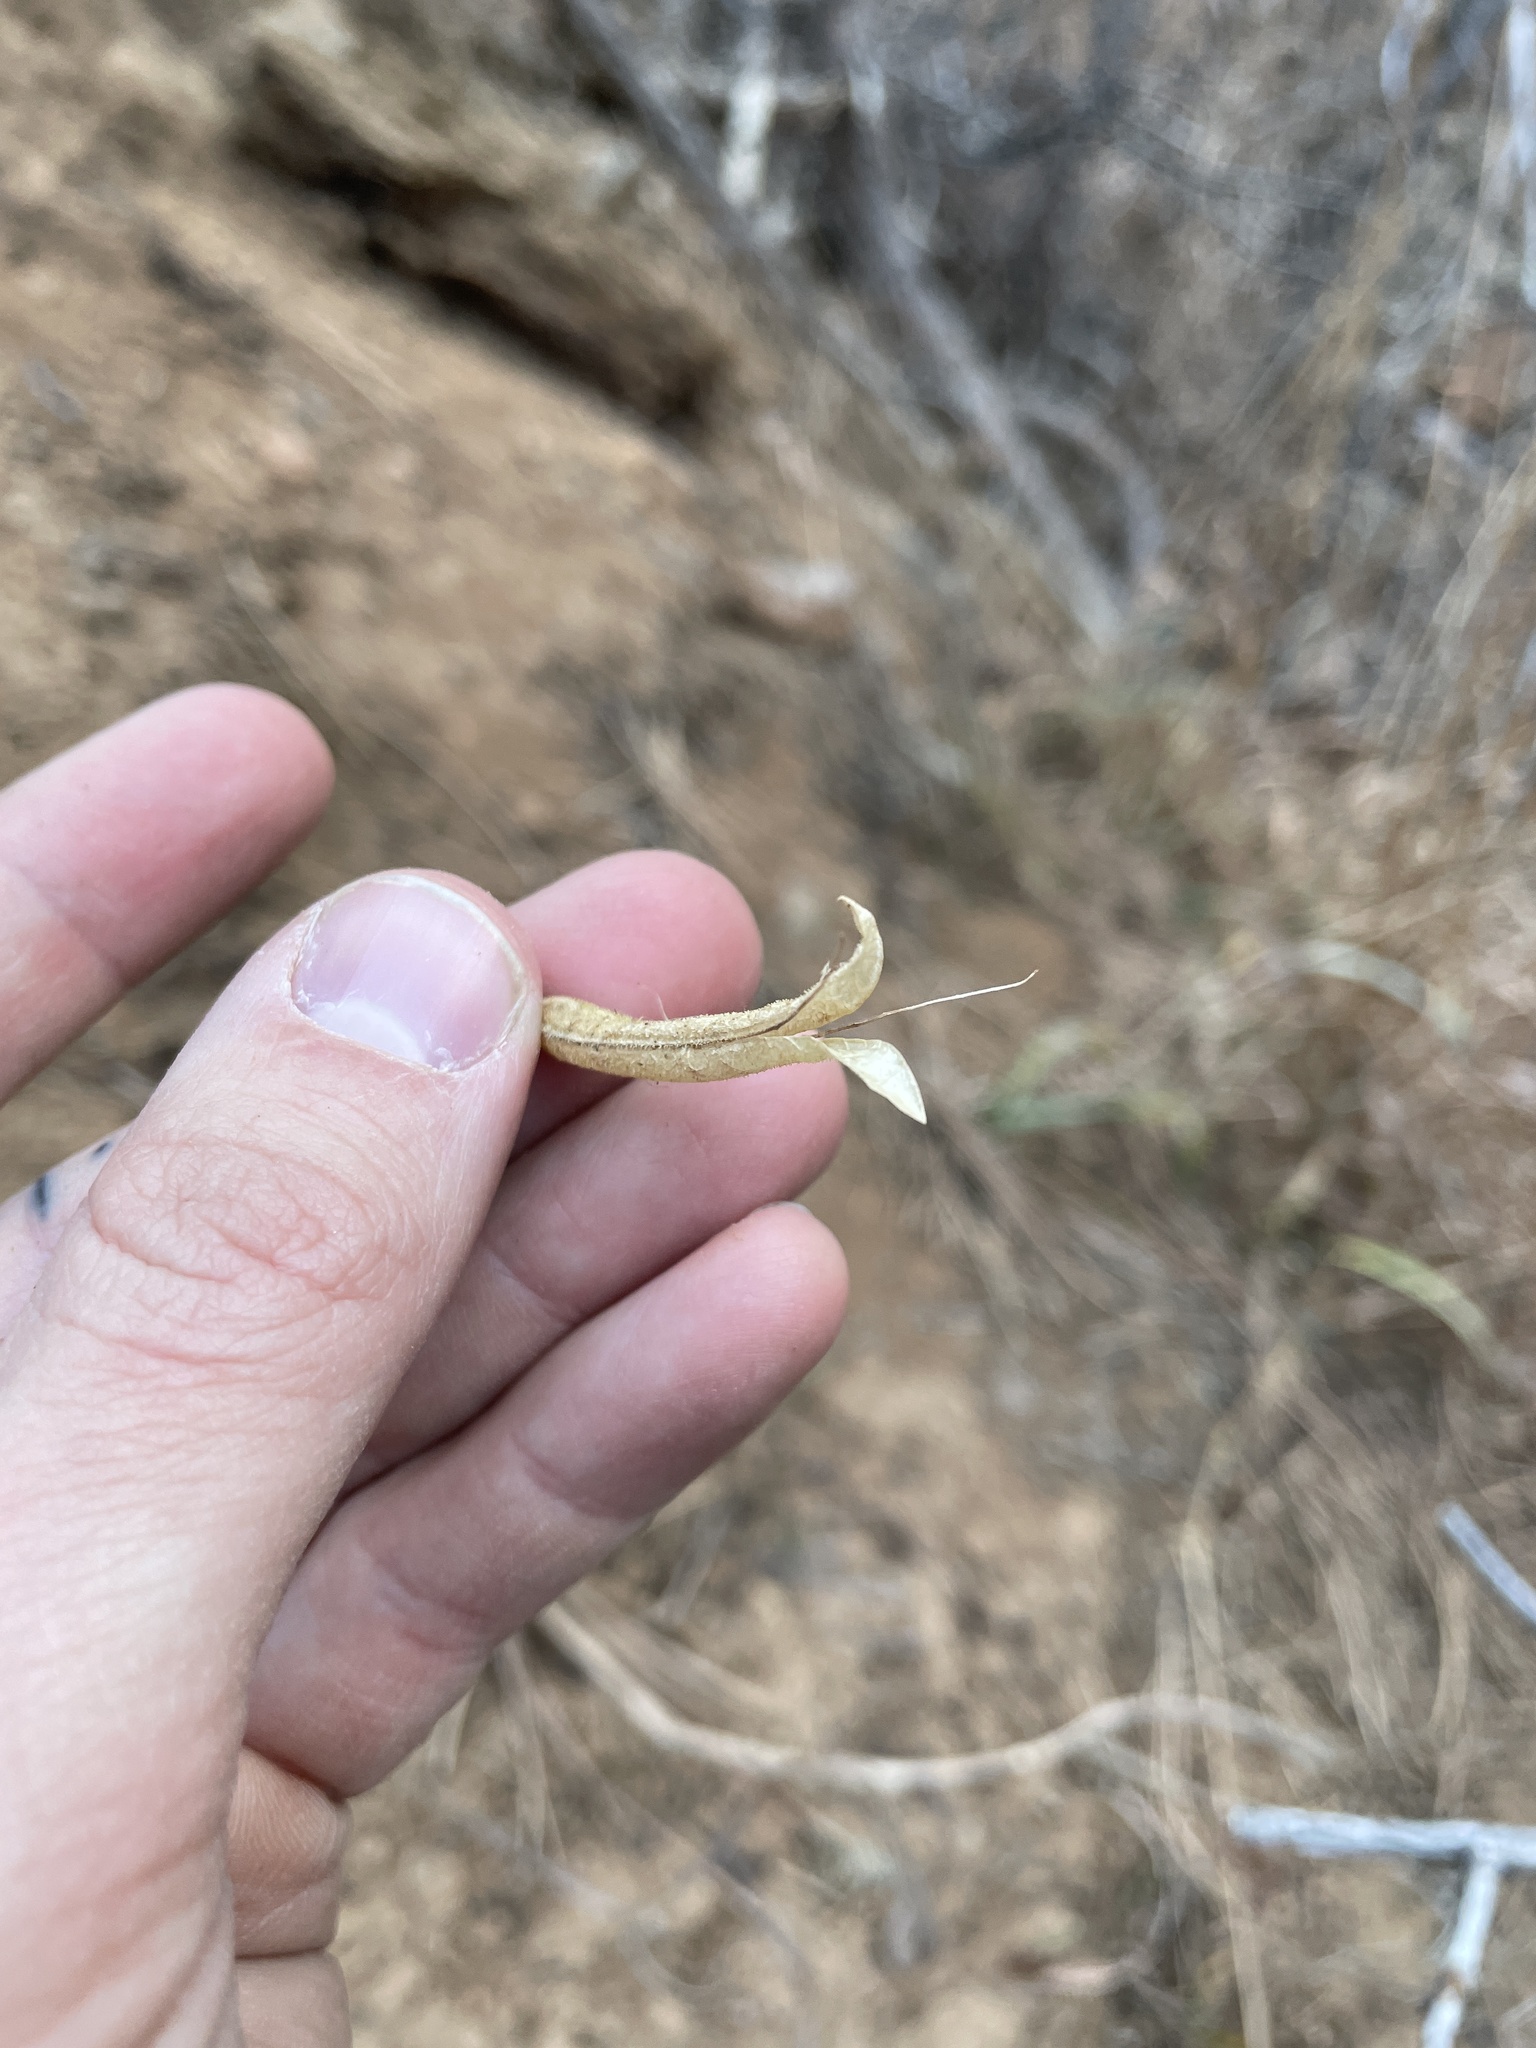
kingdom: Plantae
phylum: Tracheophyta
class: Magnoliopsida
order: Brassicales
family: Cleomaceae
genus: Polanisia
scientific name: Polanisia dodecandra
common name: Clammyweed
